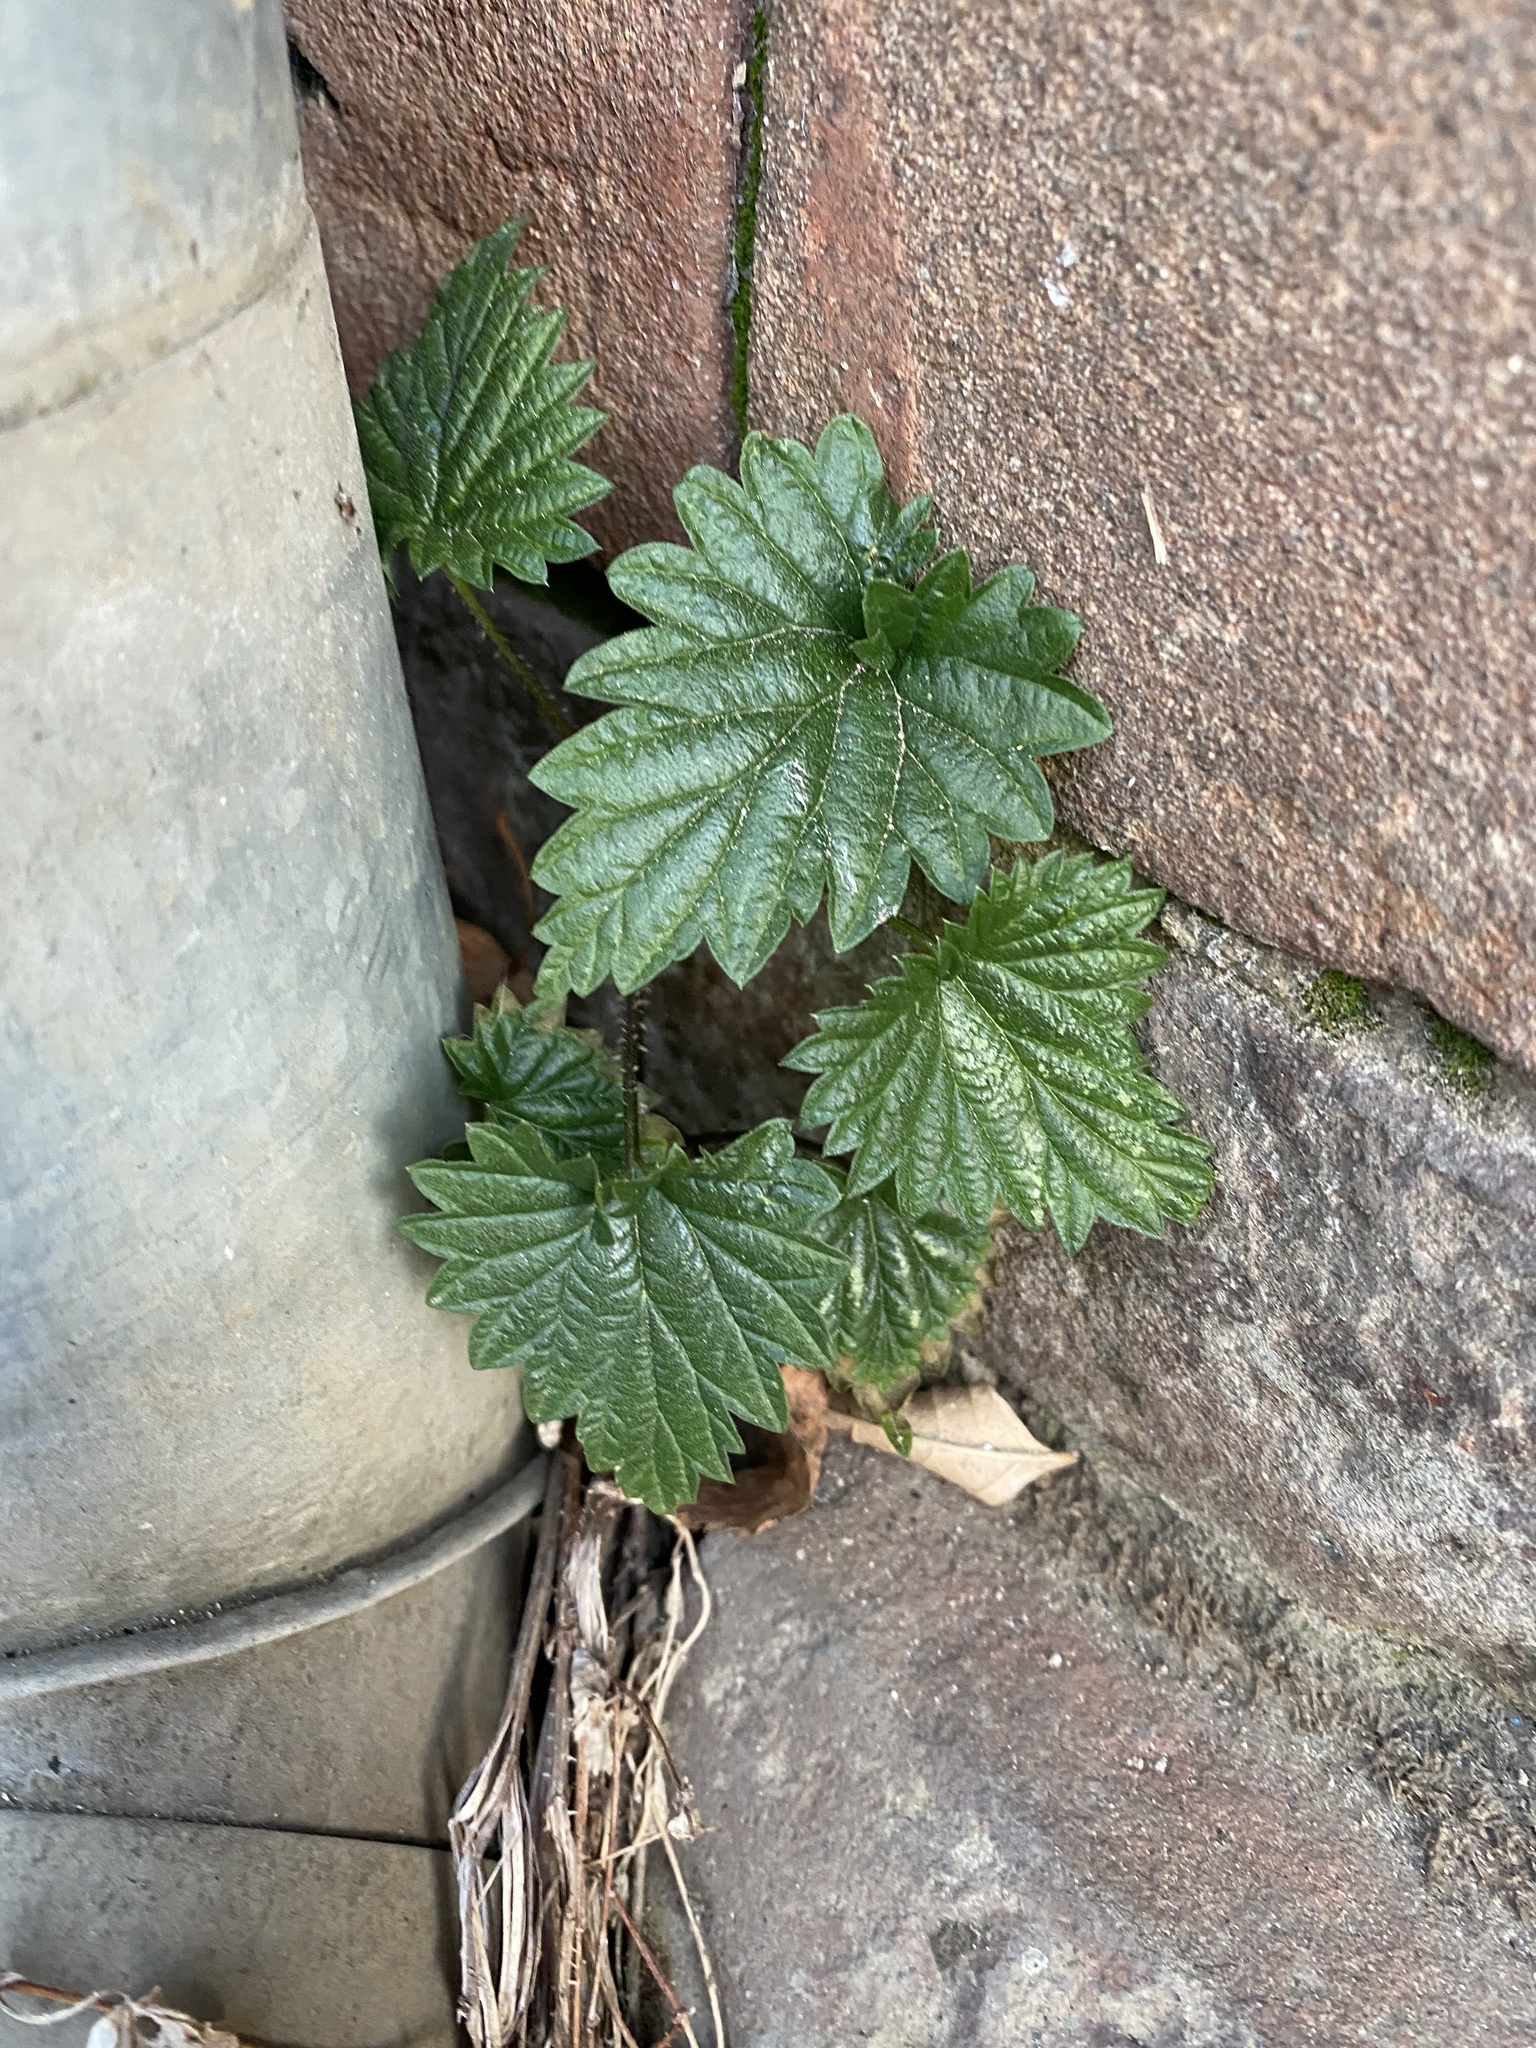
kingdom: Plantae
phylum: Tracheophyta
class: Magnoliopsida
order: Rosales
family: Cannabaceae
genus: Humulus
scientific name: Humulus lupulus
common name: Hop
